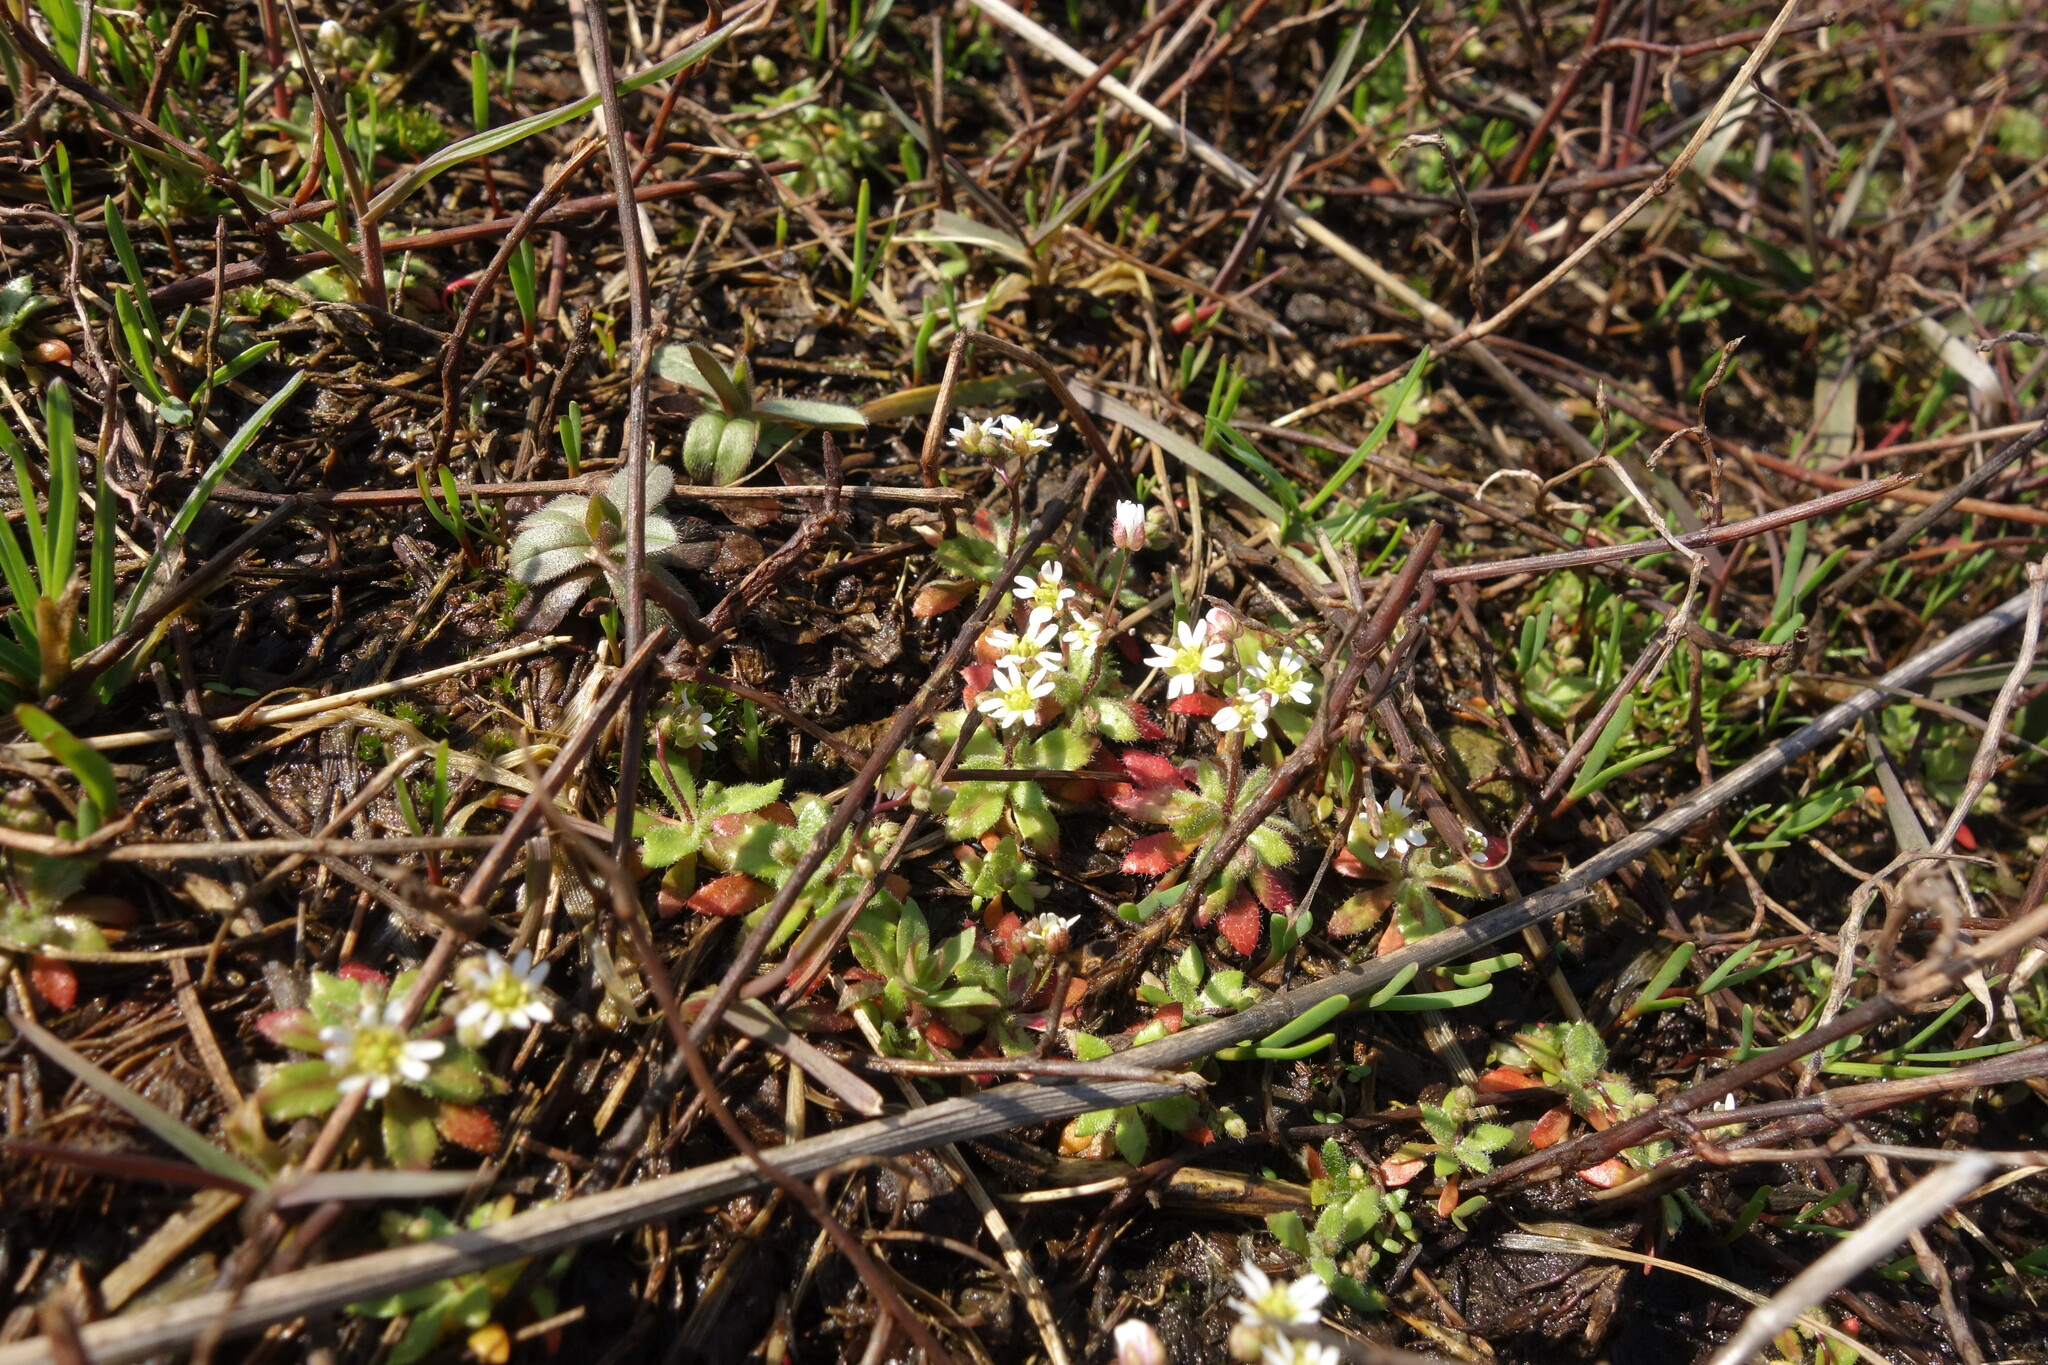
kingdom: Plantae
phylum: Tracheophyta
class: Magnoliopsida
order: Brassicales
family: Brassicaceae
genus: Draba
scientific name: Draba verna
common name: Spring draba
